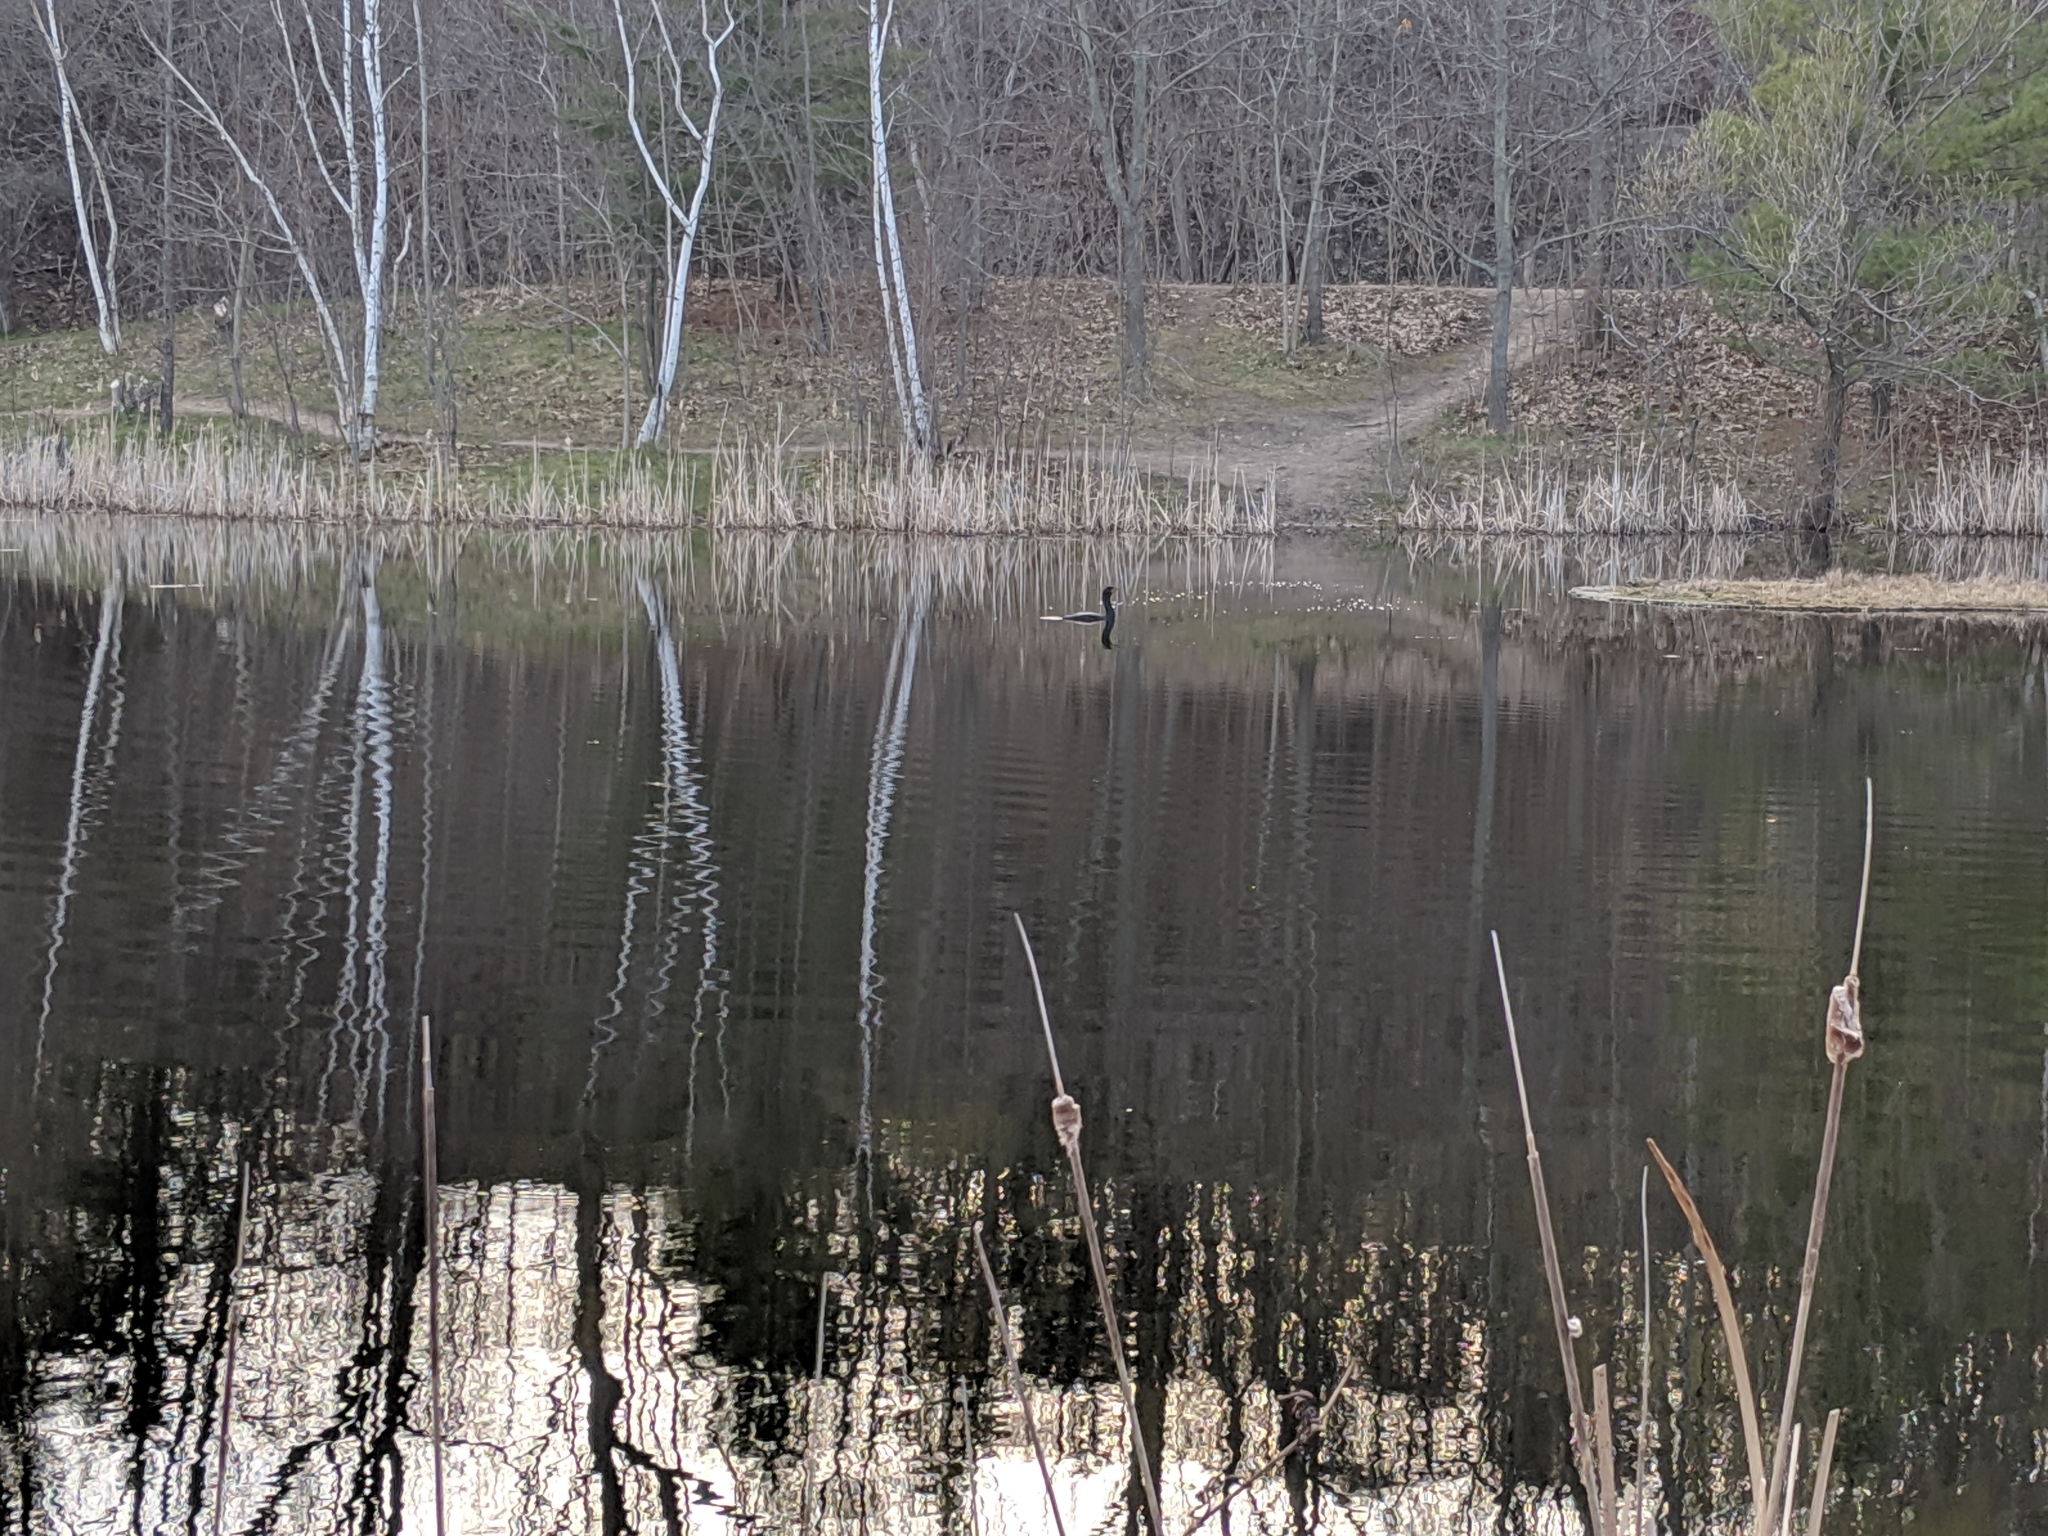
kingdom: Animalia
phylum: Chordata
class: Aves
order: Suliformes
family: Phalacrocoracidae
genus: Phalacrocorax
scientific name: Phalacrocorax auritus
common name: Double-crested cormorant
